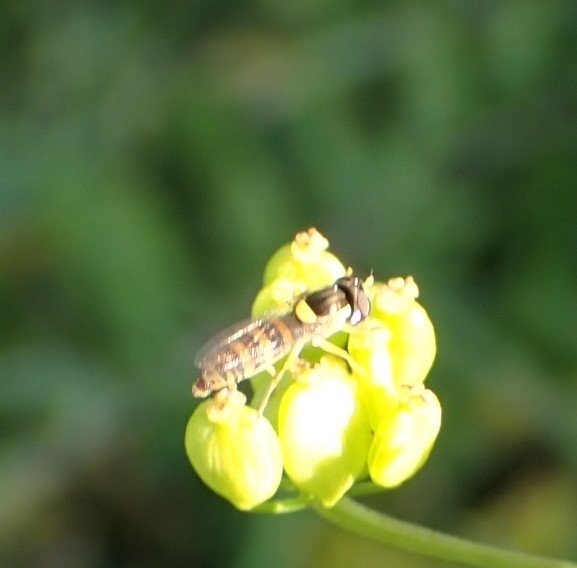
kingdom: Animalia
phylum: Arthropoda
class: Insecta
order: Diptera
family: Syrphidae
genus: Sphaerophoria
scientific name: Sphaerophoria
